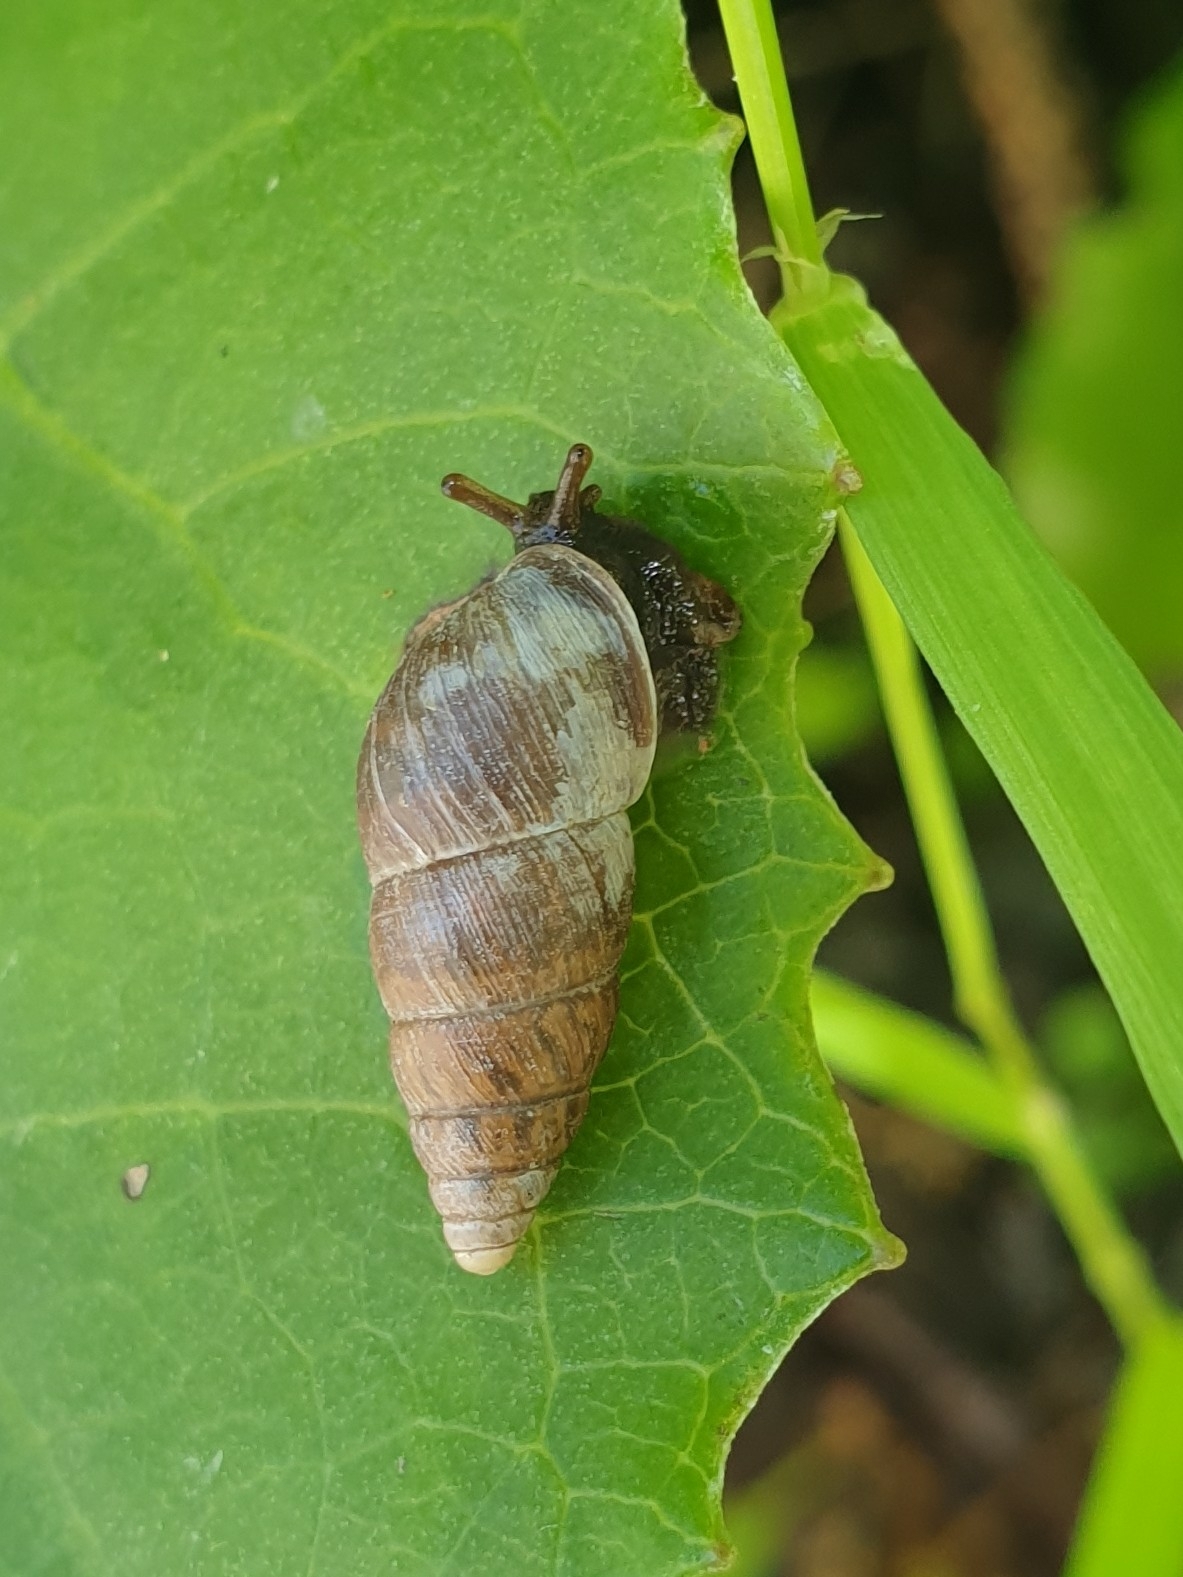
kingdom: Animalia
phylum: Mollusca
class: Gastropoda
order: Stylommatophora
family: Enidae
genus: Ena
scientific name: Ena montana
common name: Mountain bulin
